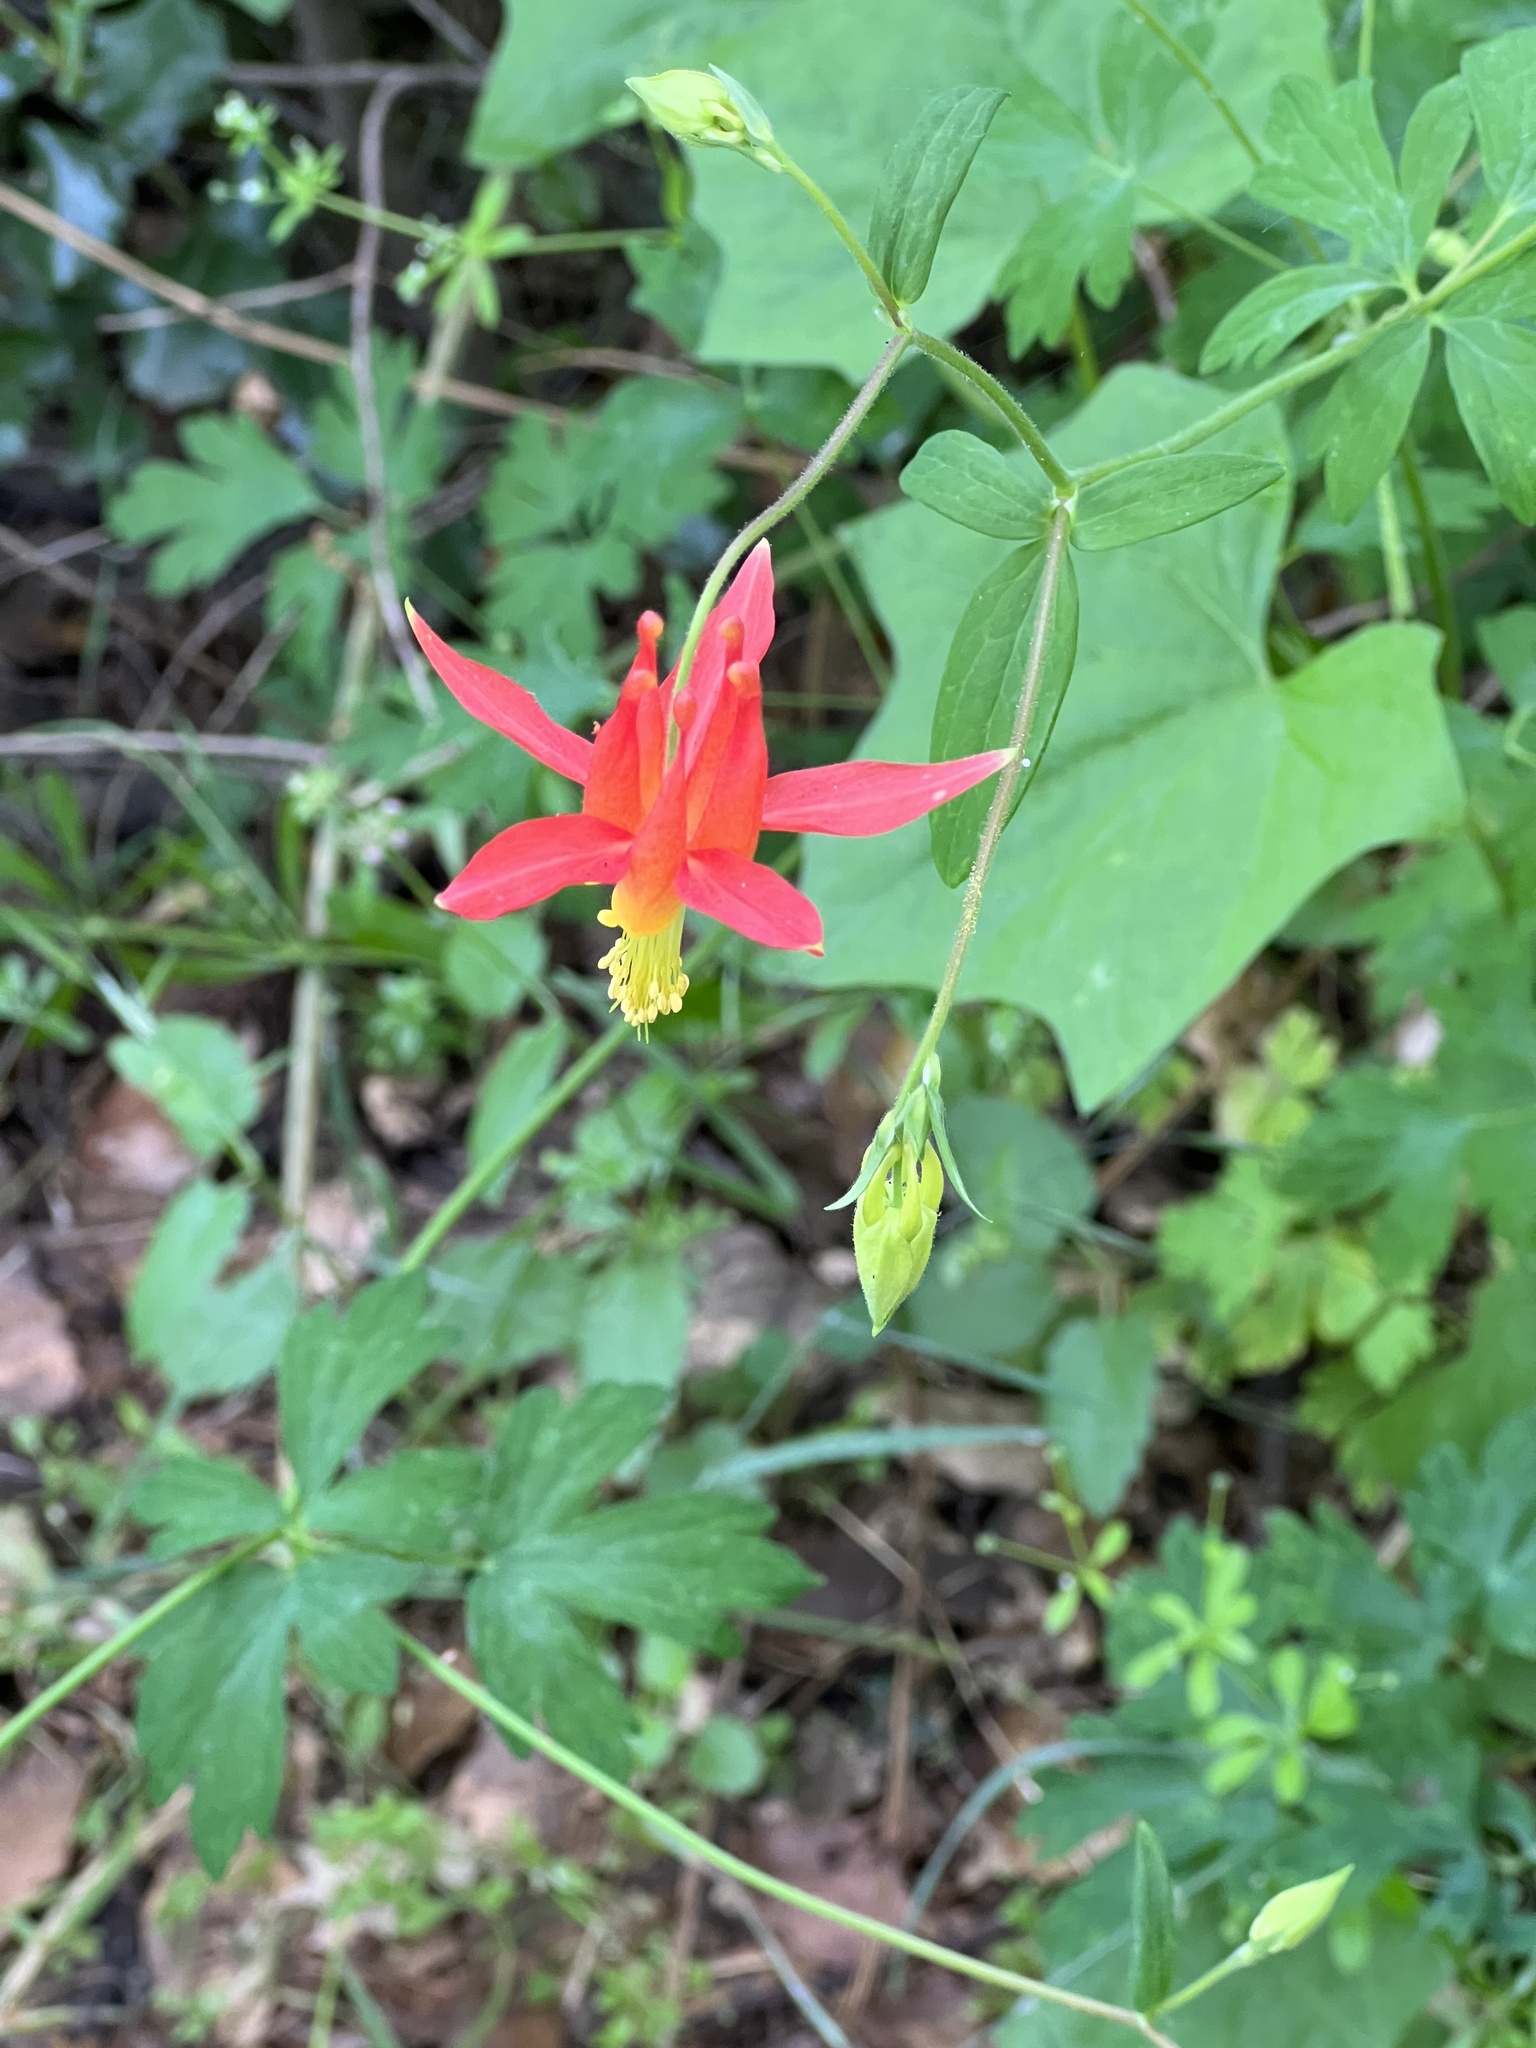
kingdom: Plantae
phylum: Tracheophyta
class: Magnoliopsida
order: Ranunculales
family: Ranunculaceae
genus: Aquilegia
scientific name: Aquilegia formosa
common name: Sitka columbine
